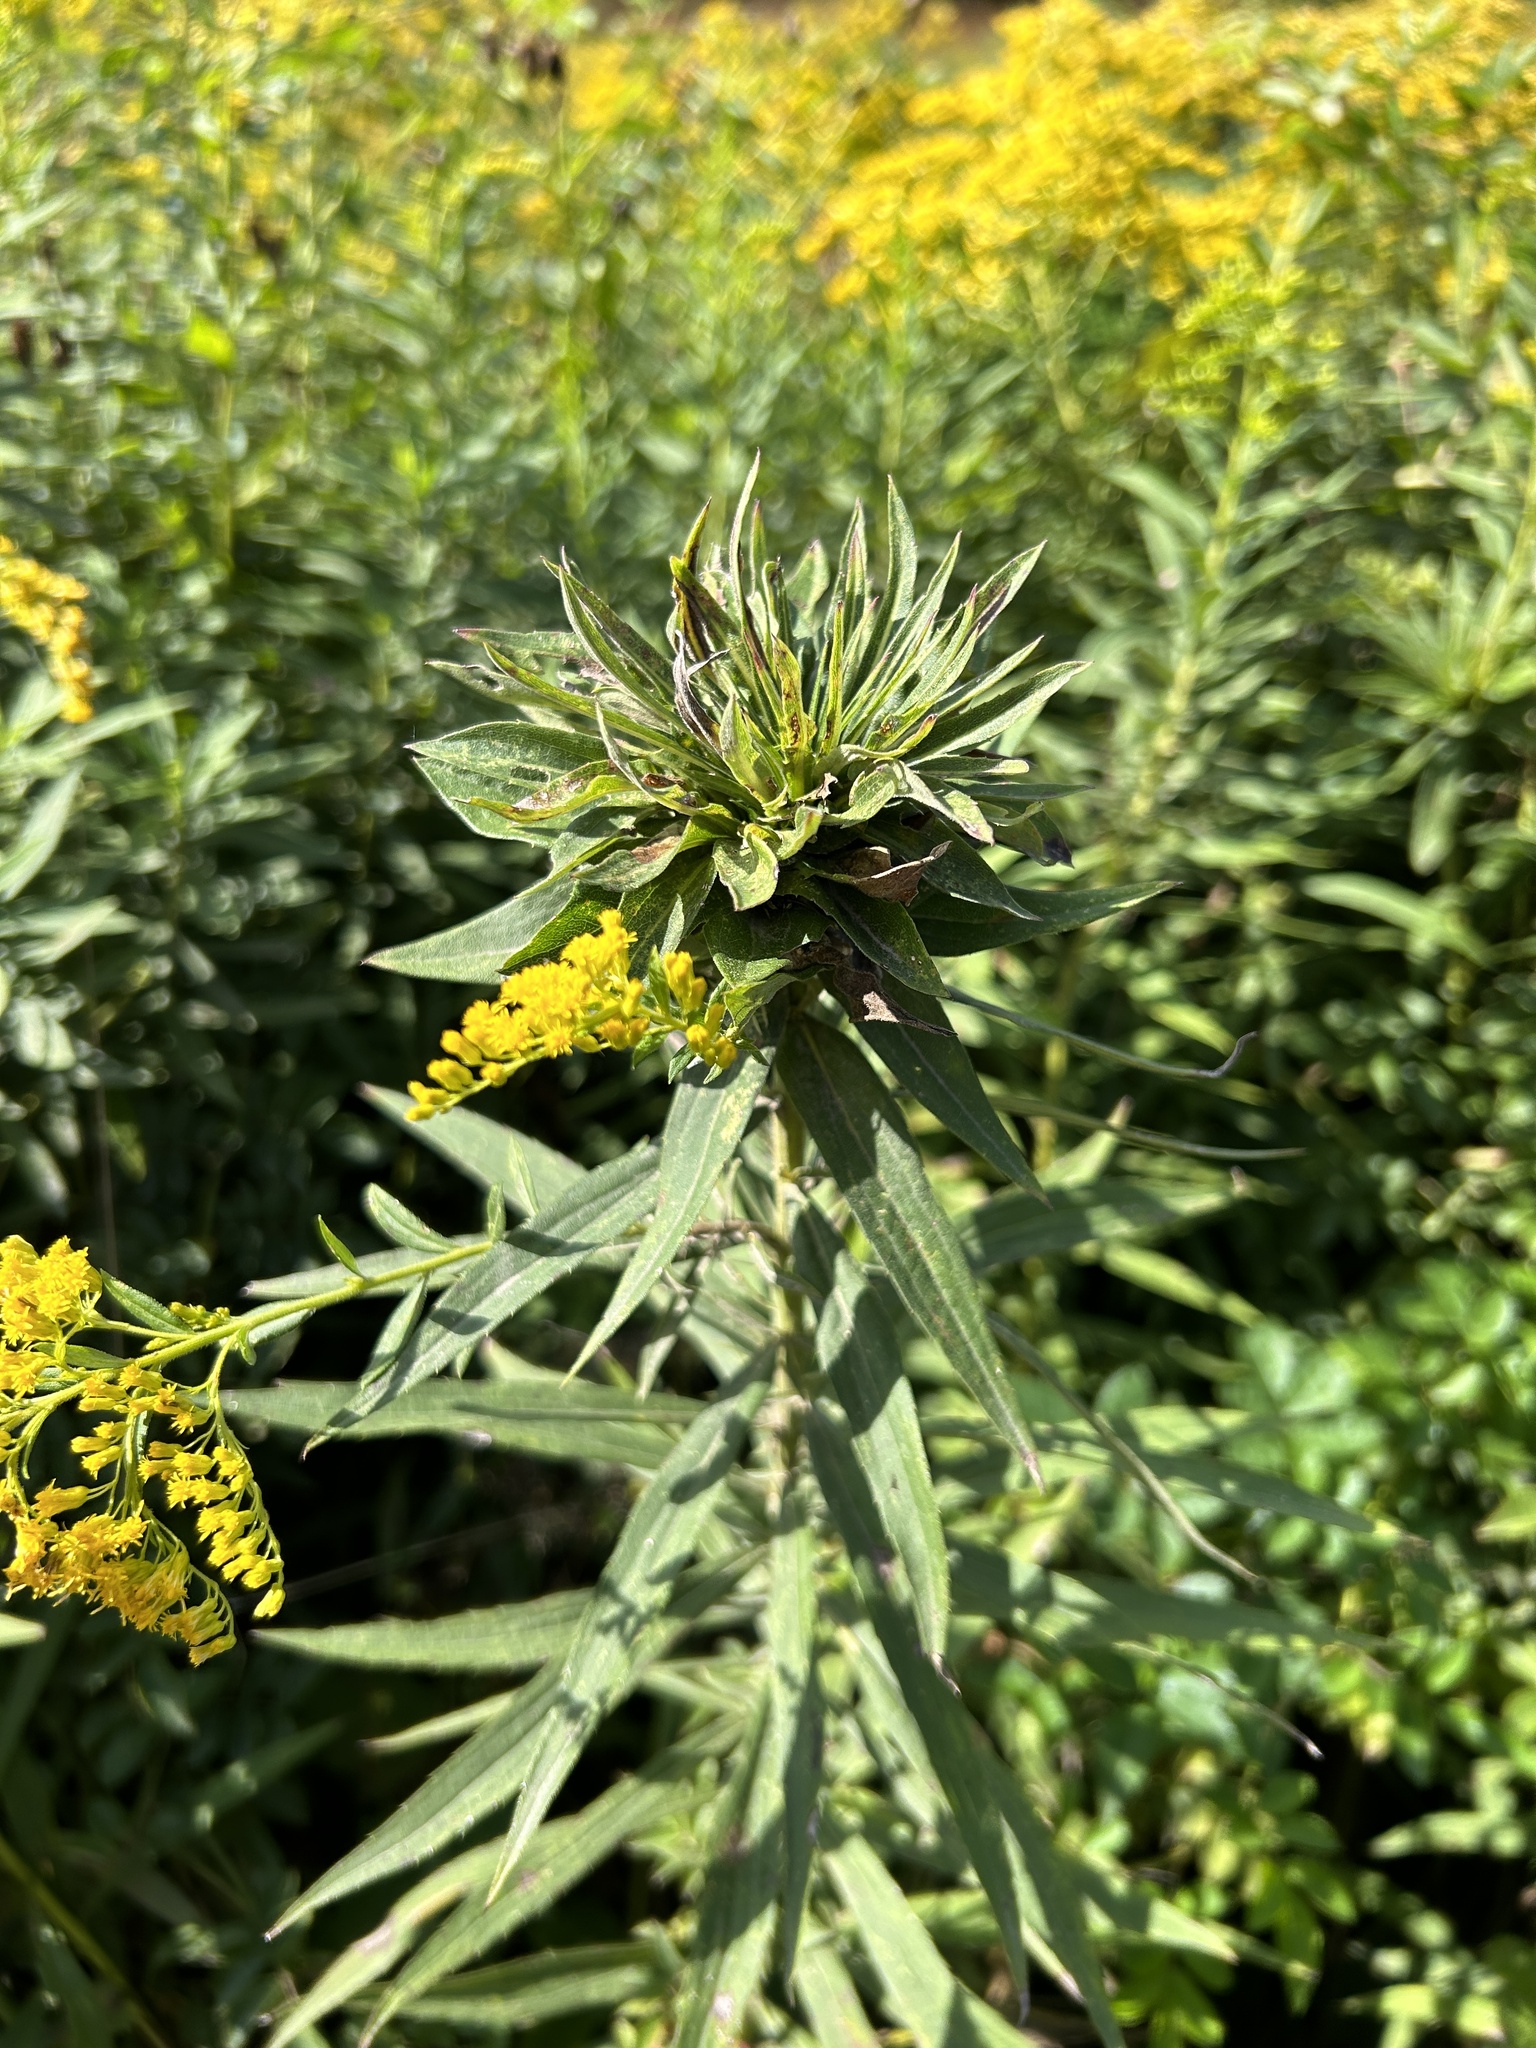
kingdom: Animalia
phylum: Arthropoda
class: Insecta
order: Diptera
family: Cecidomyiidae
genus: Rhopalomyia
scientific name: Rhopalomyia solidaginis
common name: Goldenrod bunch gall midge
